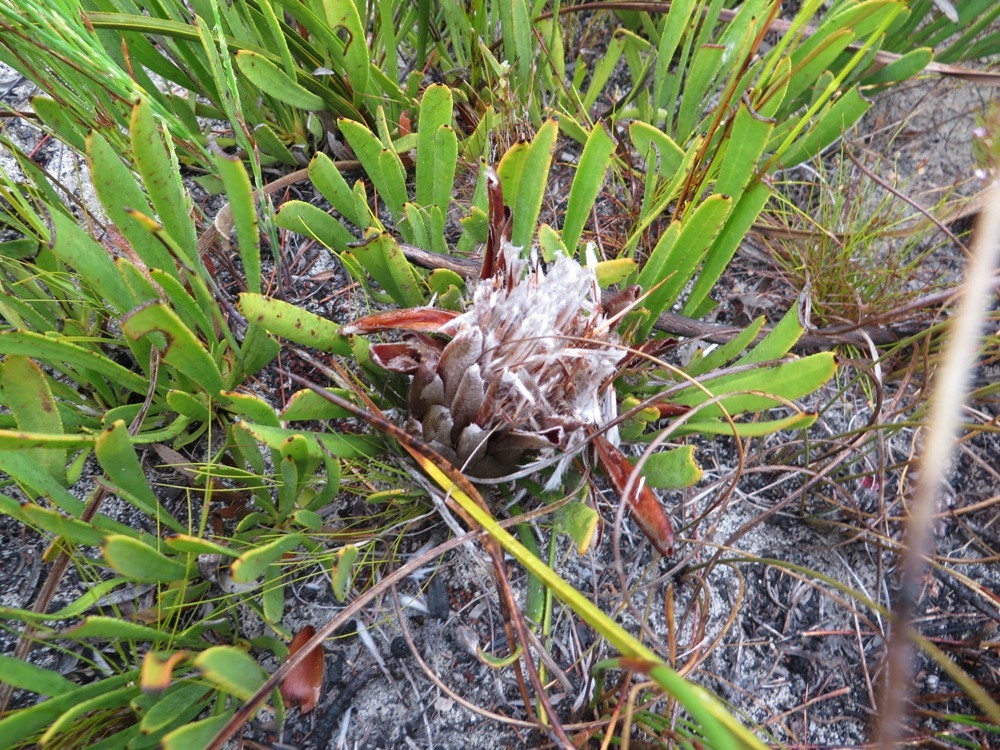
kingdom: Plantae
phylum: Tracheophyta
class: Magnoliopsida
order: Proteales
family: Proteaceae
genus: Protea
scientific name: Protea aspera
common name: Rough-leaf sugarbush
